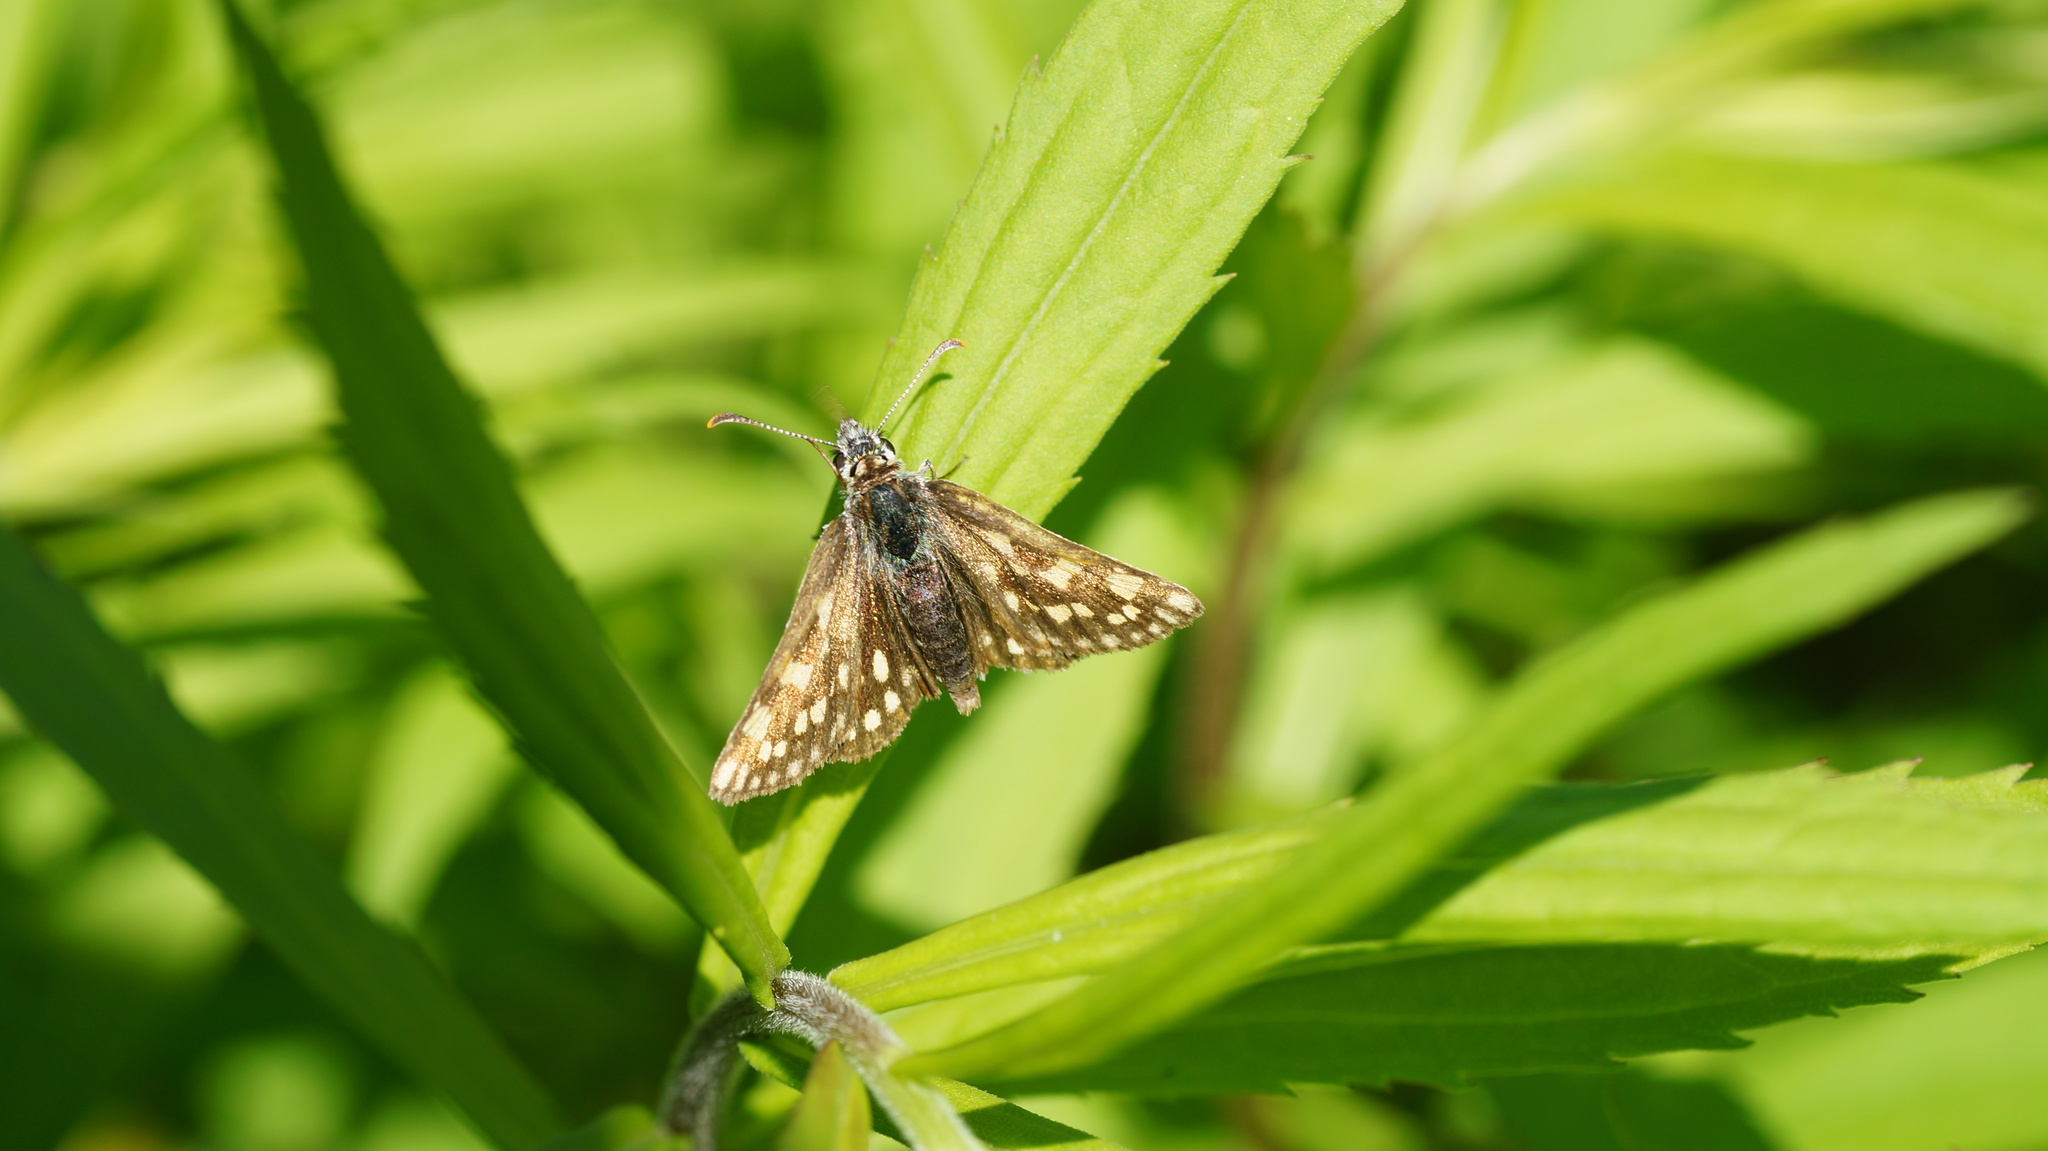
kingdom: Animalia
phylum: Arthropoda
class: Insecta
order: Lepidoptera
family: Hesperiidae
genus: Carterocephalus
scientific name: Carterocephalus palaemon
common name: Chequered skipper
